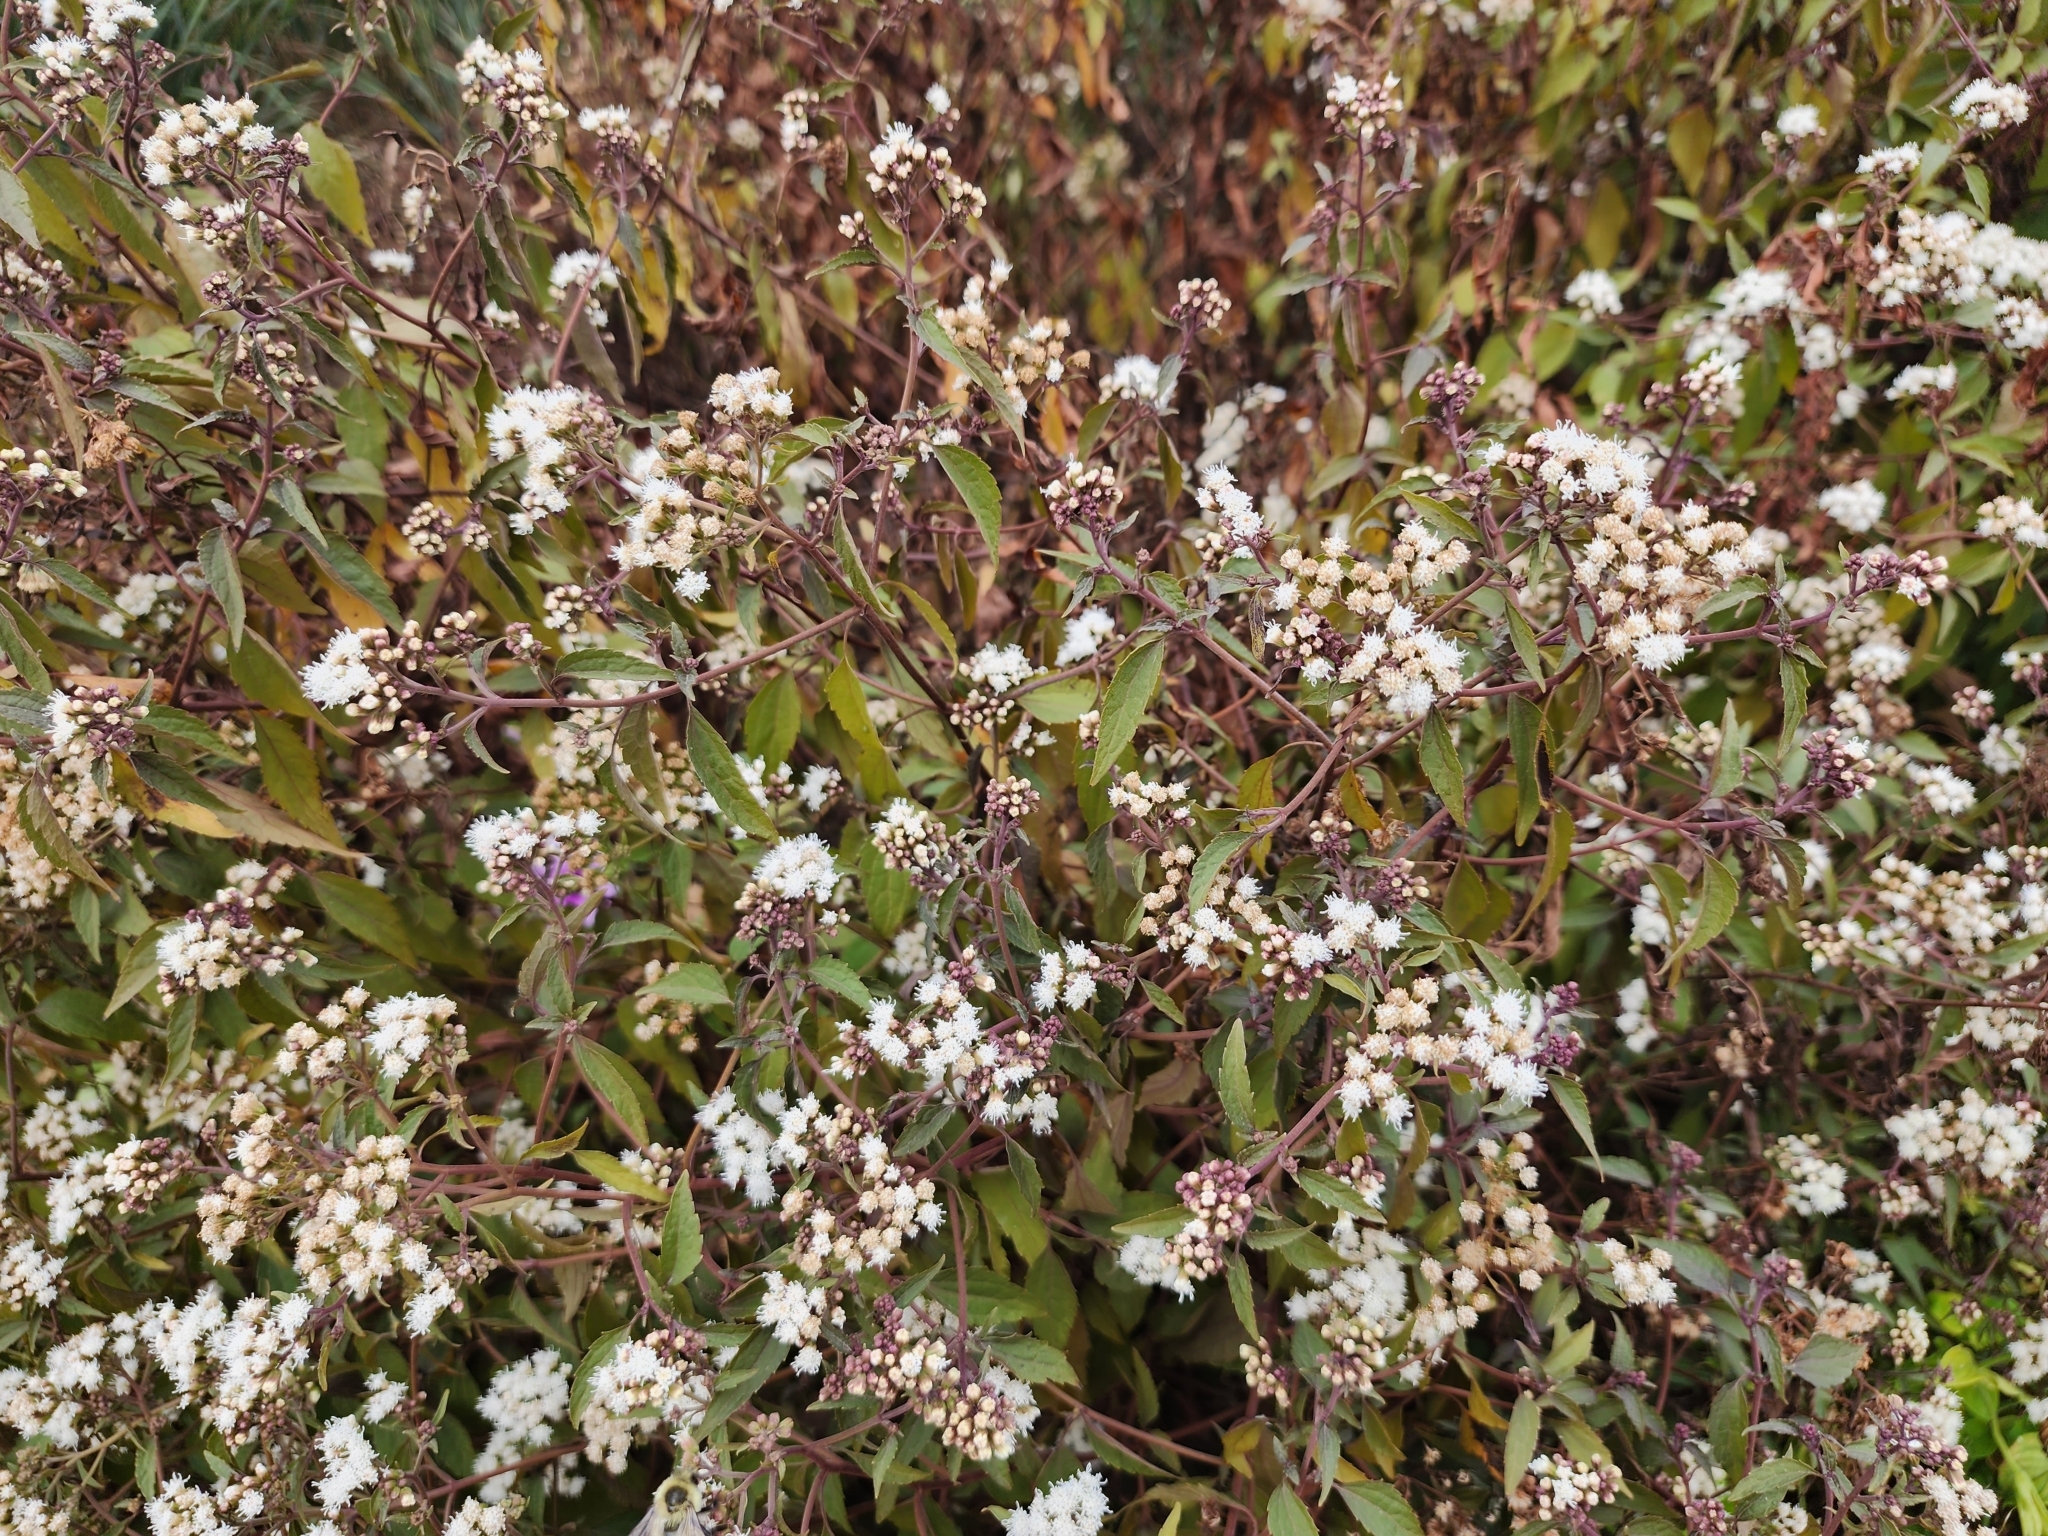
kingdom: Plantae
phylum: Tracheophyta
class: Magnoliopsida
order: Asterales
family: Asteraceae
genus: Eupatorium
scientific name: Eupatorium serotinum
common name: Late boneset
